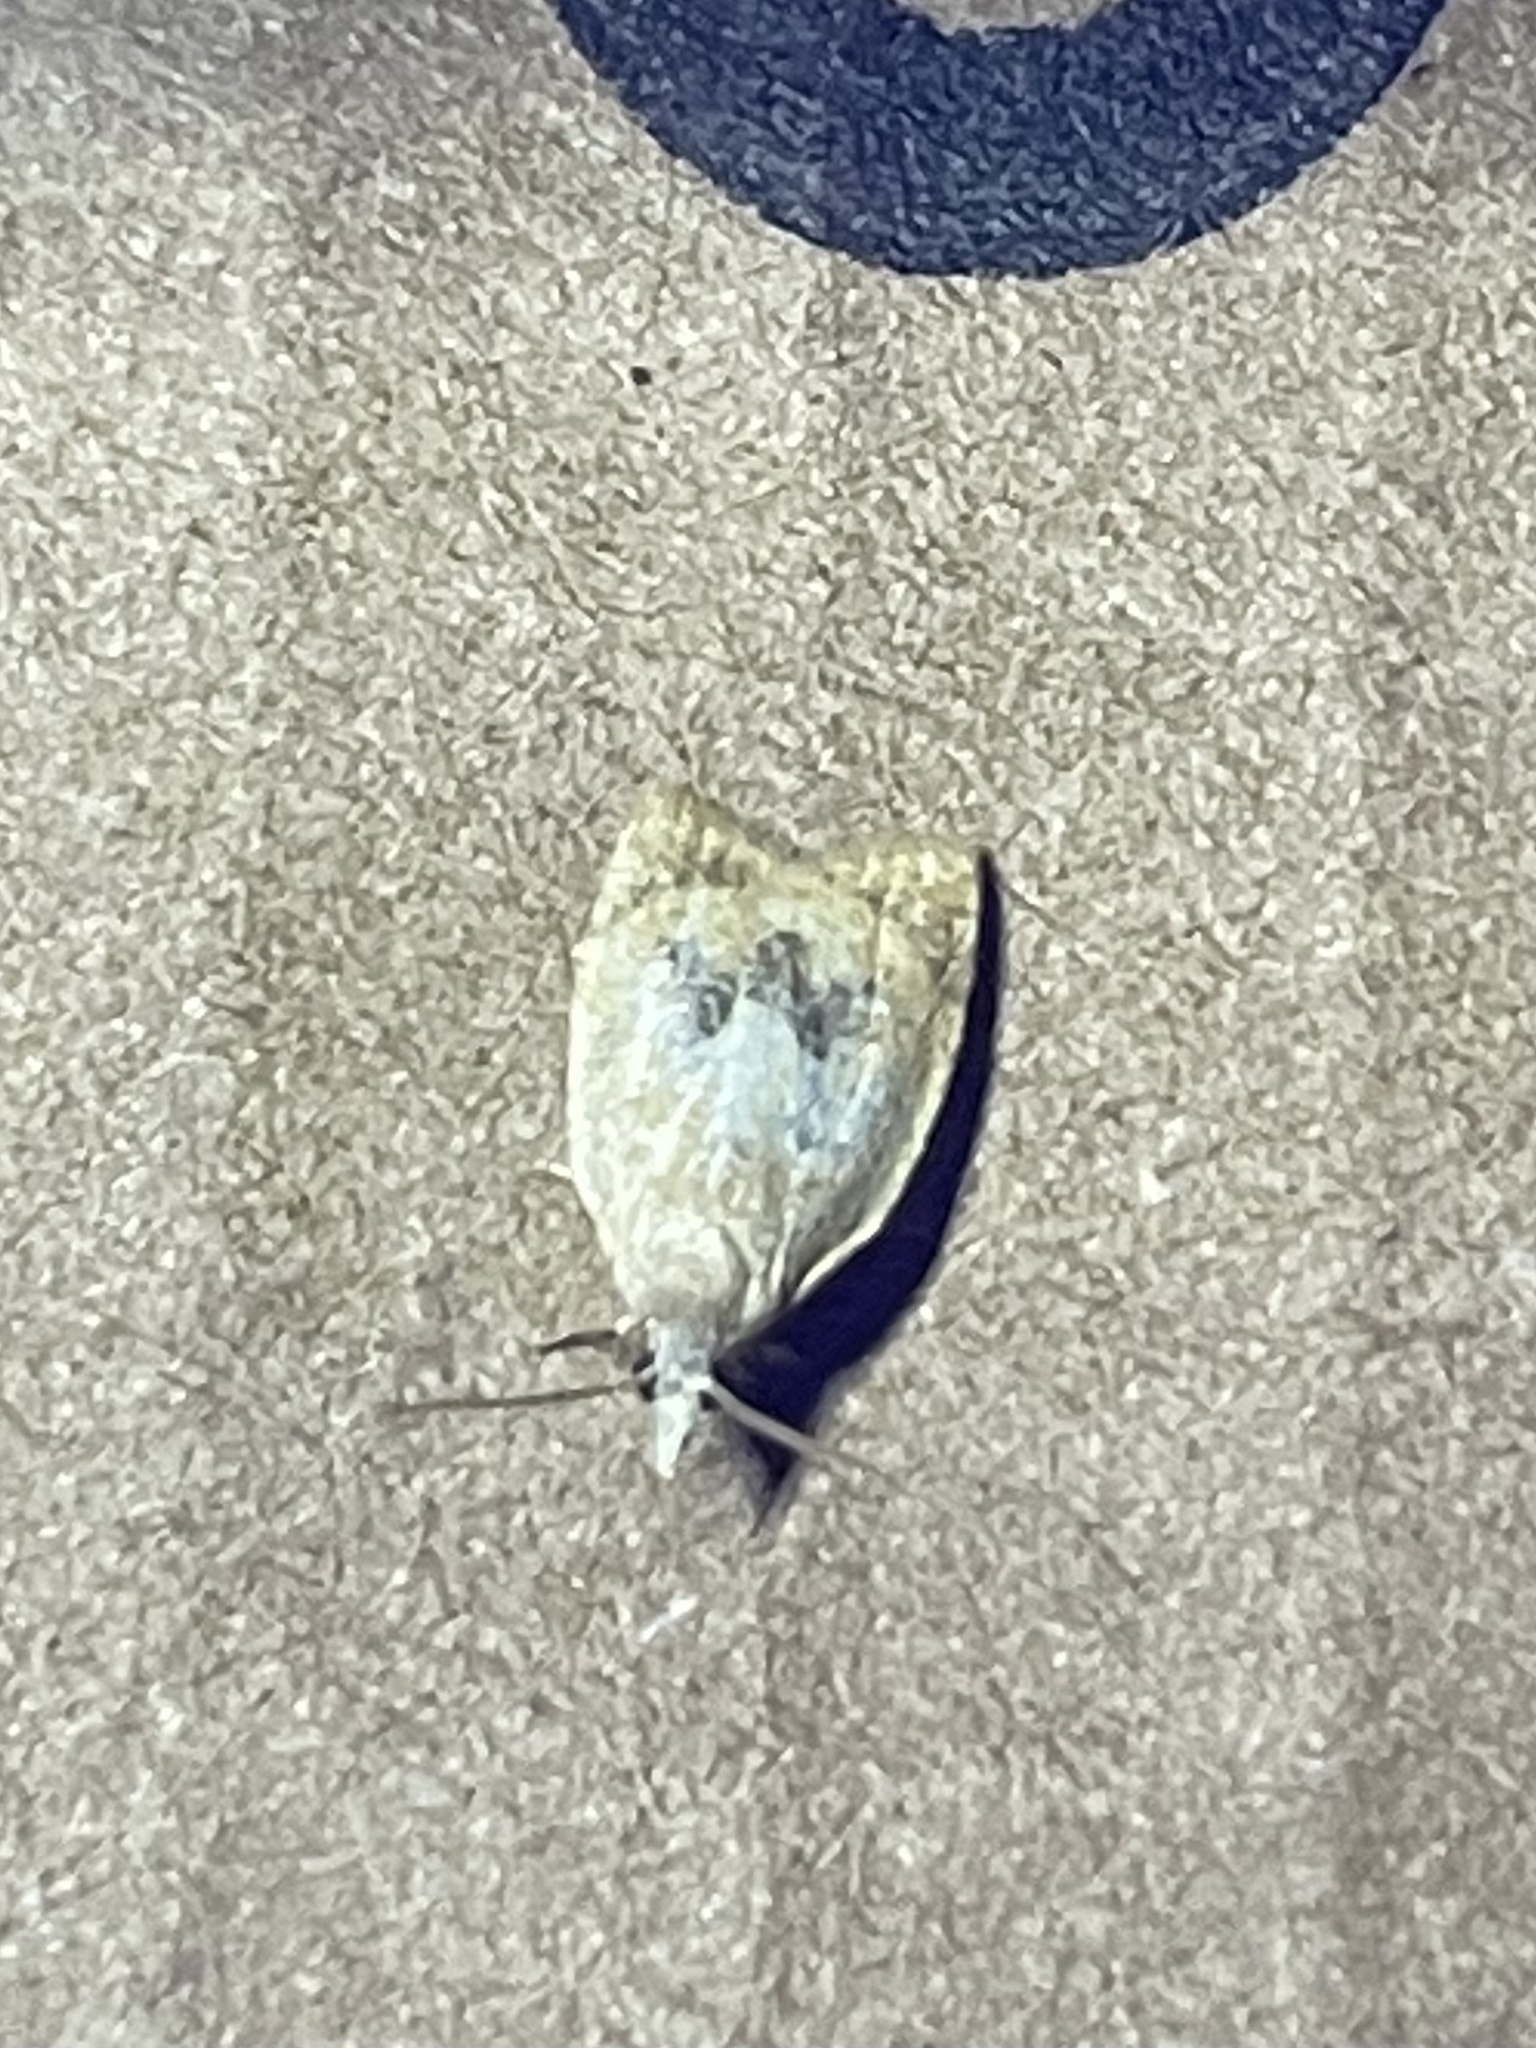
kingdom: Animalia
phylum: Arthropoda
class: Insecta
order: Lepidoptera
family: Tortricidae
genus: Sparganothoides
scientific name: Sparganothoides lentiginosana
